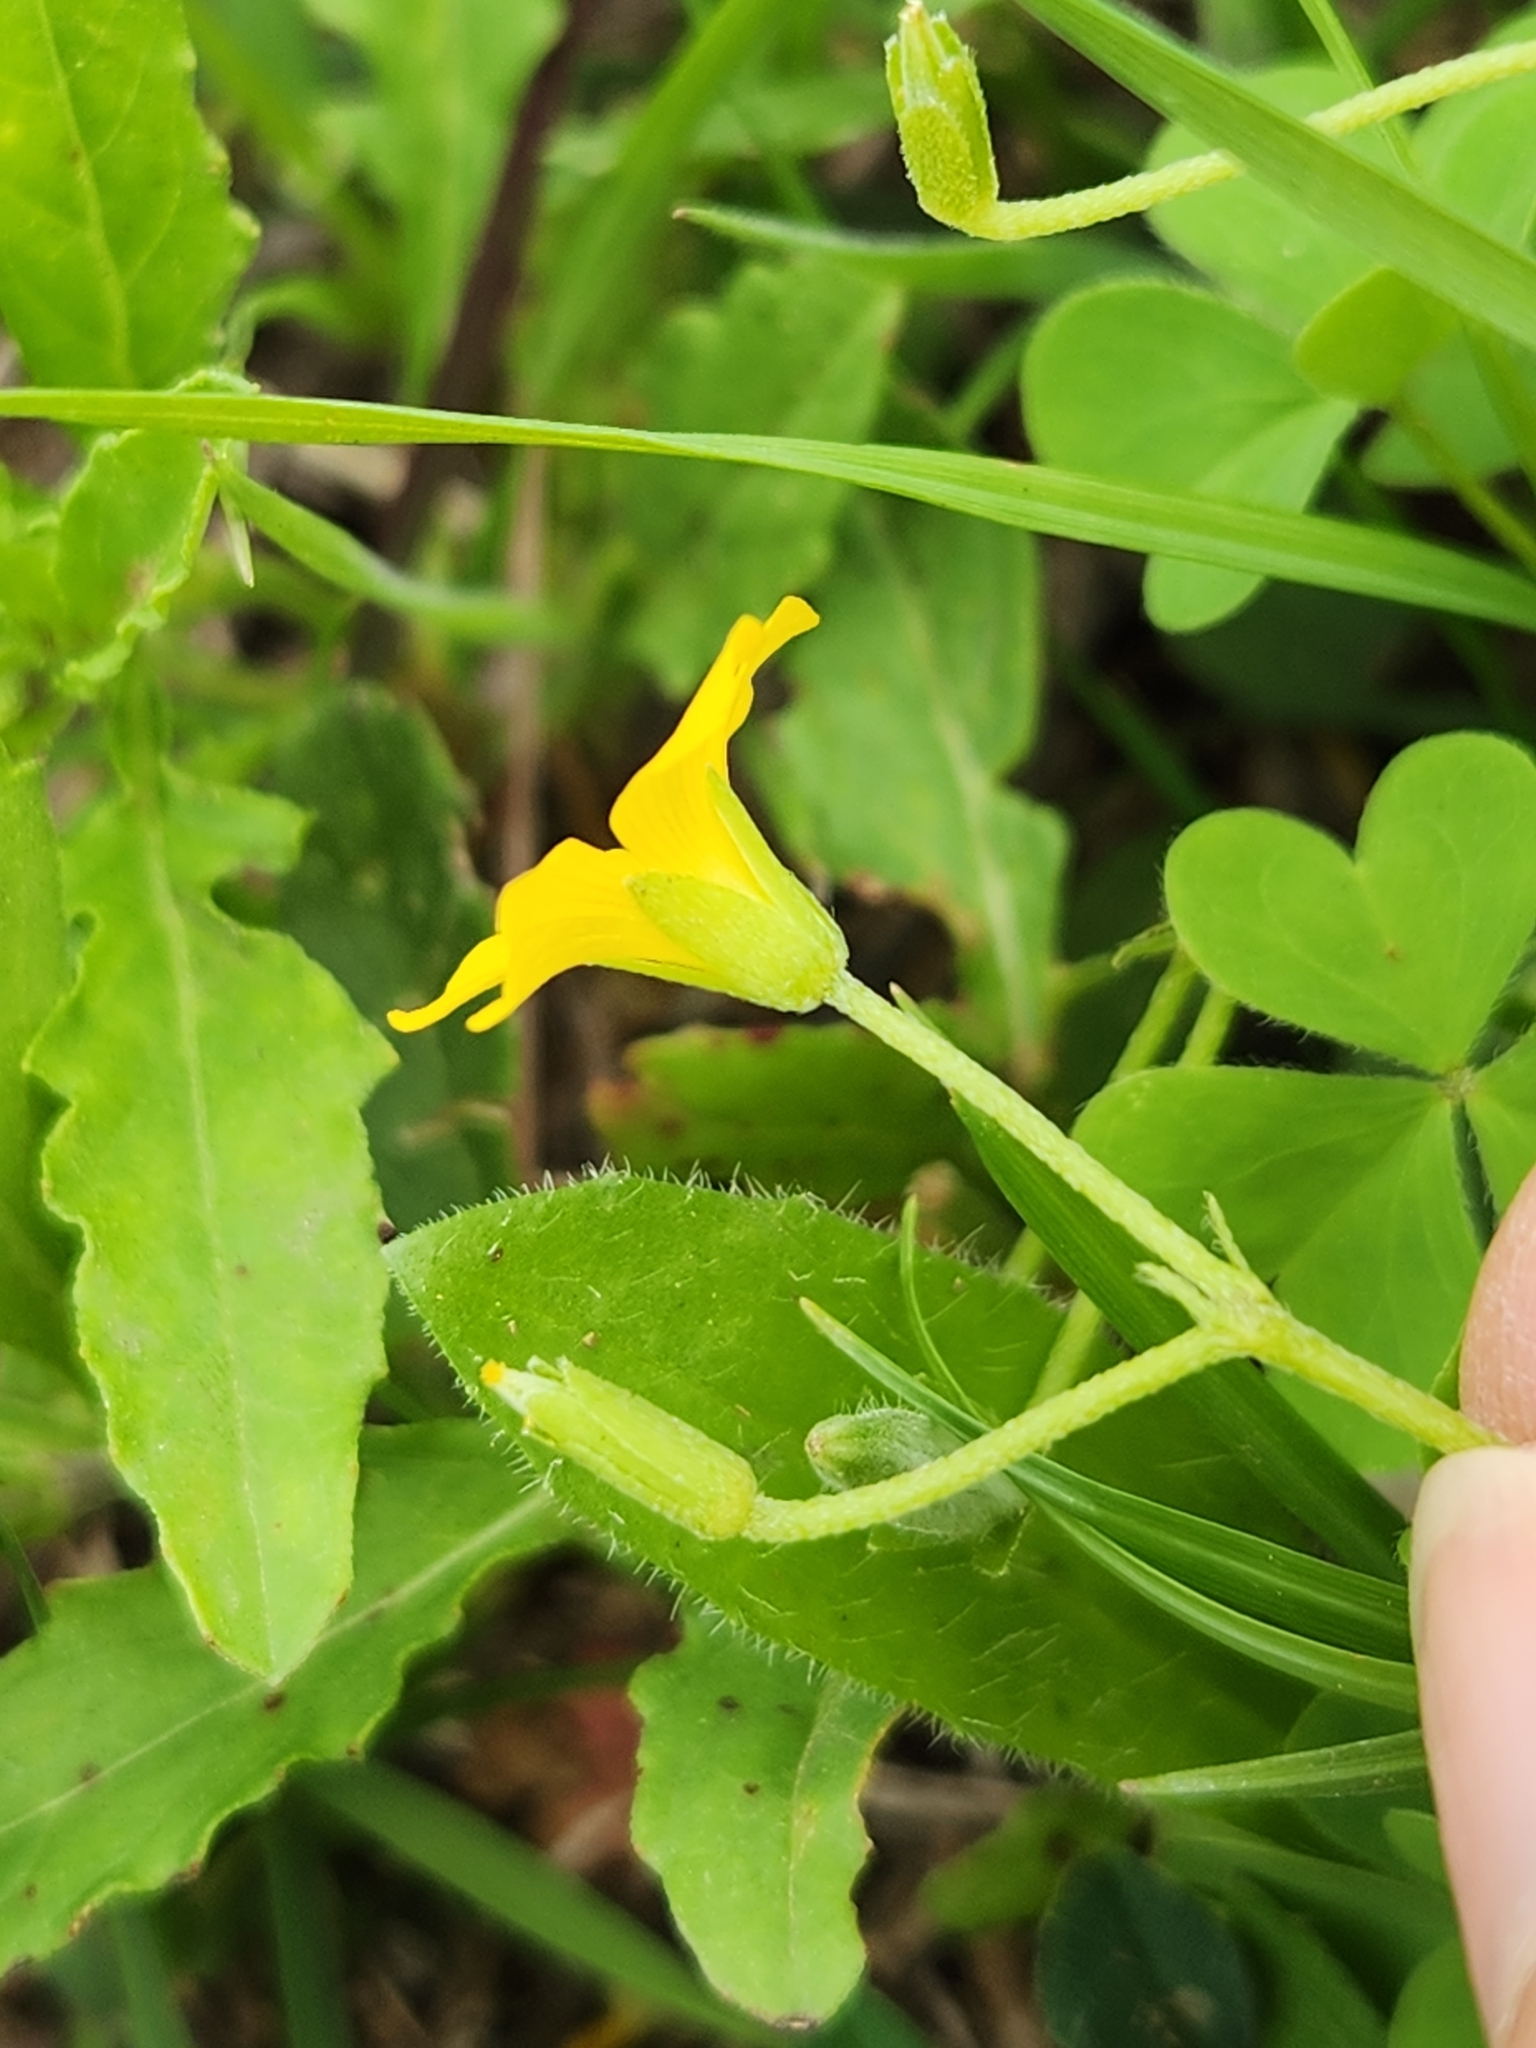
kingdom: Plantae
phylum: Tracheophyta
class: Magnoliopsida
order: Oxalidales
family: Oxalidaceae
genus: Oxalis
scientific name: Oxalis dillenii
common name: Sussex yellow-sorrel
